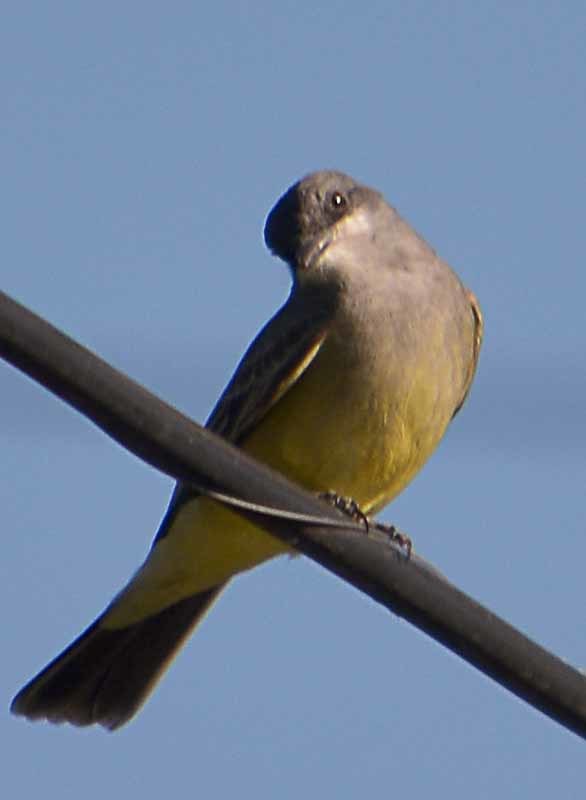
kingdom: Animalia
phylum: Chordata
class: Aves
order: Passeriformes
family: Tyrannidae
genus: Tyrannus
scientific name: Tyrannus vociferans
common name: Cassin's kingbird
